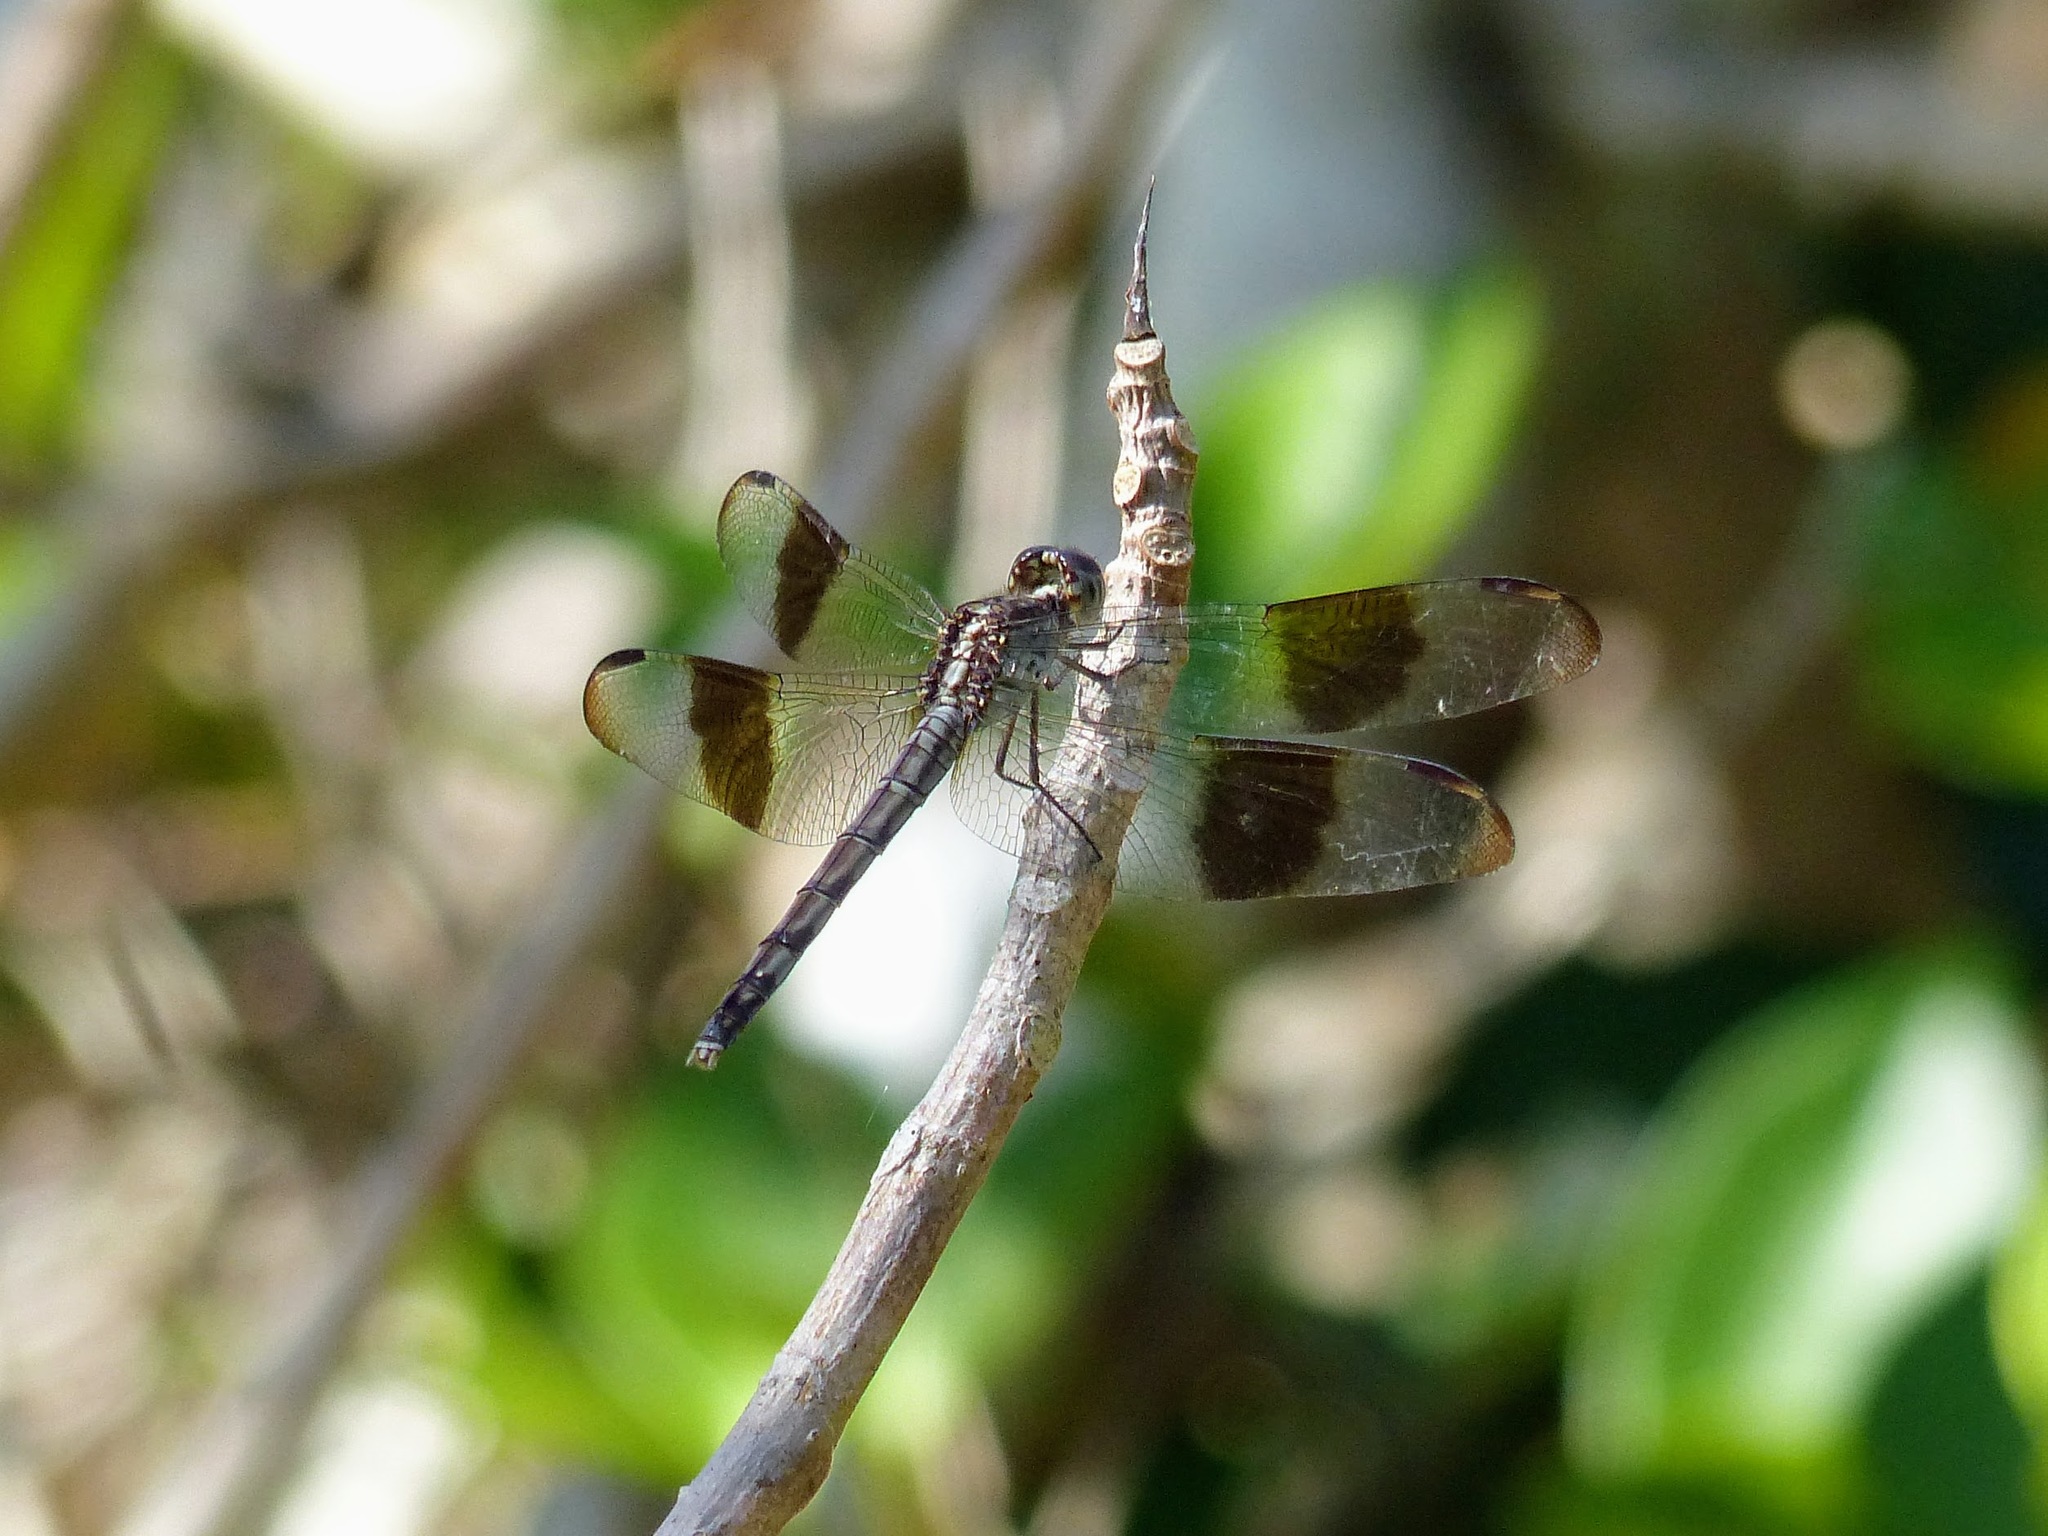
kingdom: Animalia
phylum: Arthropoda
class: Insecta
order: Odonata
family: Libellulidae
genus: Erythrodiplax
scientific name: Erythrodiplax umbrata
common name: Band-winged dragonlet
